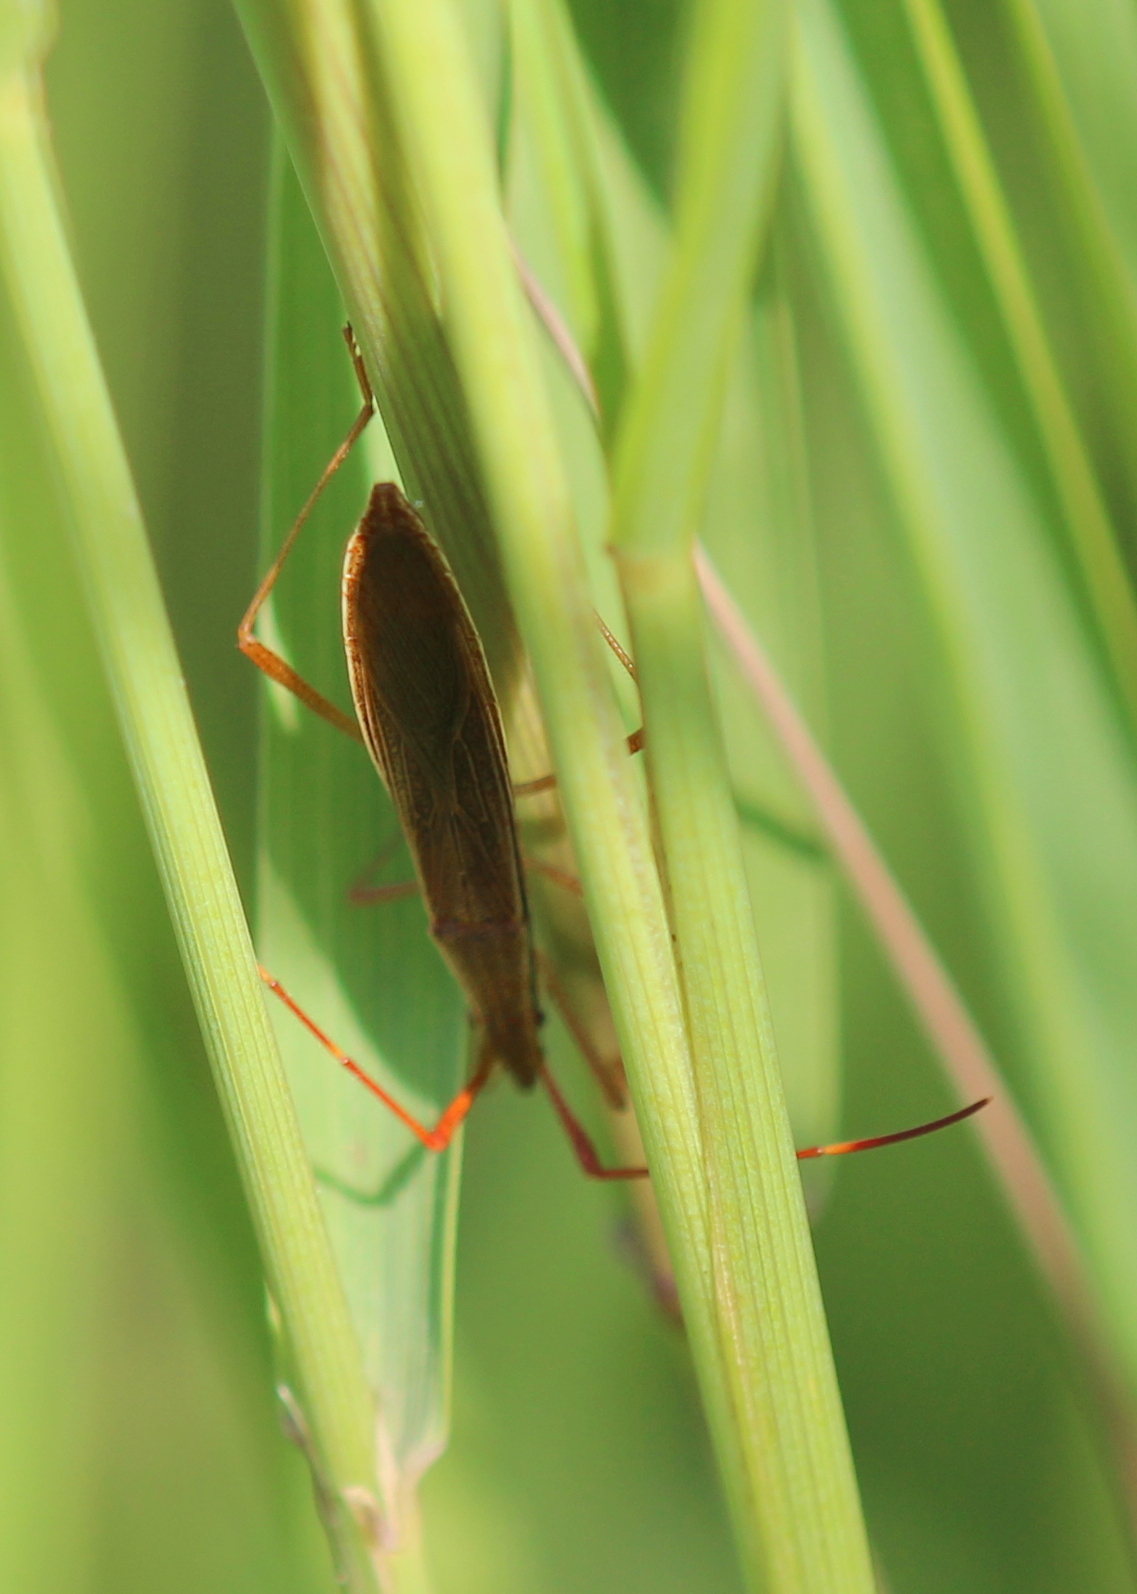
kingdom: Animalia
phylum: Arthropoda
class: Insecta
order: Hemiptera
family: Alydidae
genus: Protenor
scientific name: Protenor belfragei
